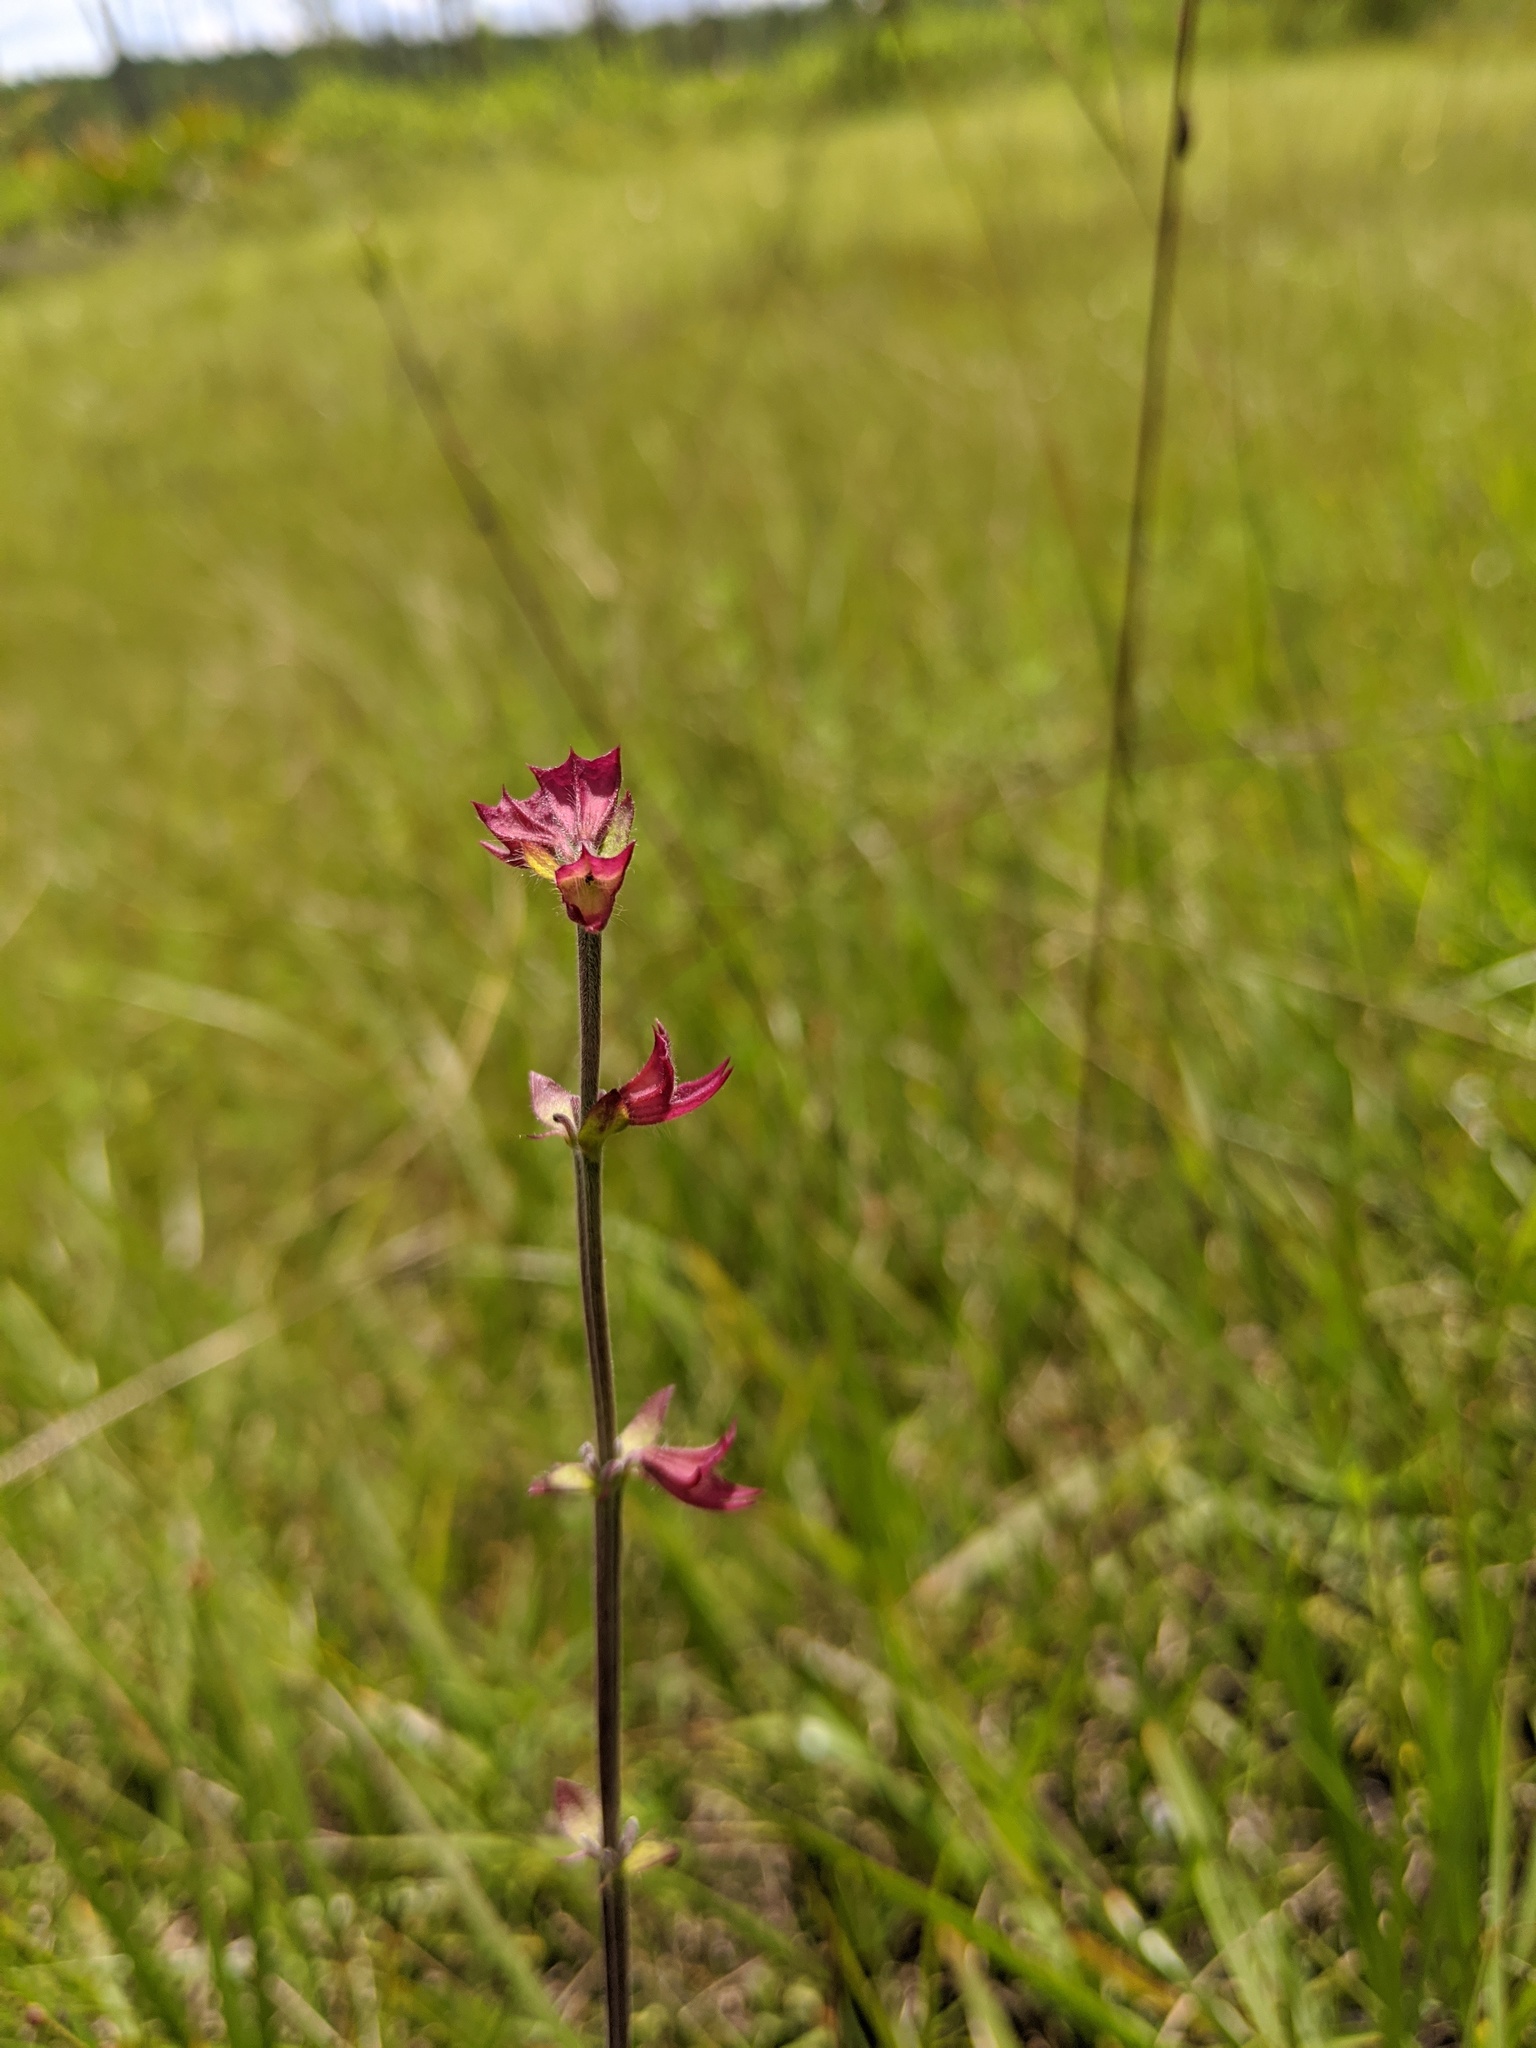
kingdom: Plantae
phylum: Tracheophyta
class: Magnoliopsida
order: Lamiales
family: Lamiaceae
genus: Salvia
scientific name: Salvia lyrata
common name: Cancerweed
